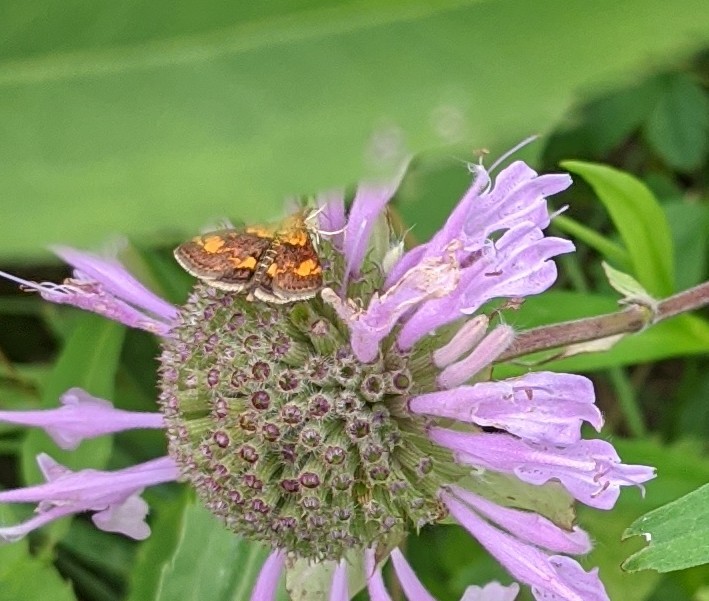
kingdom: Animalia
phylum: Arthropoda
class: Insecta
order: Lepidoptera
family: Crambidae
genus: Pyrausta
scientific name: Pyrausta orphisalis
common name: Orange mint moth
